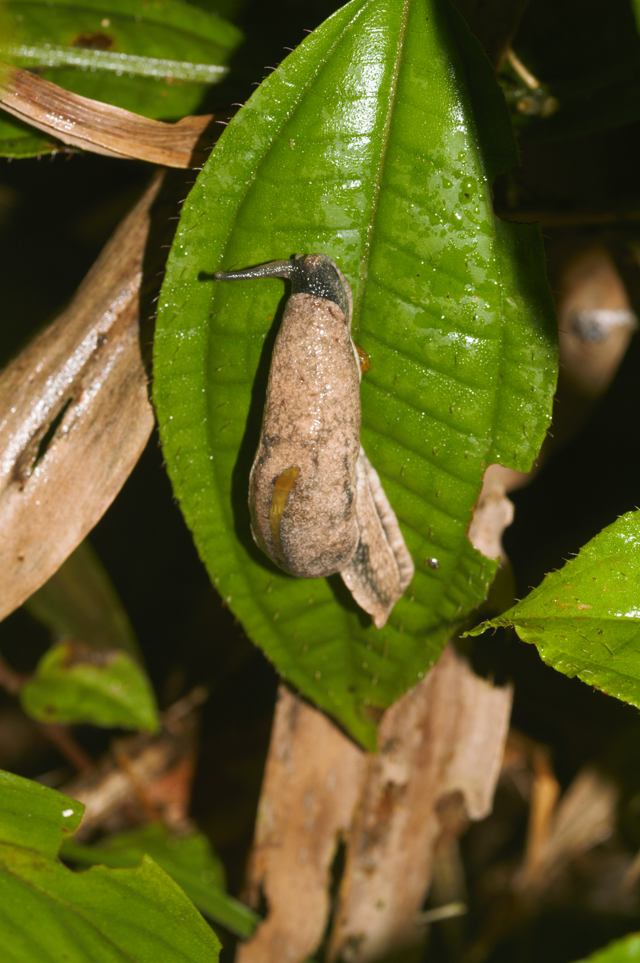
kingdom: Animalia
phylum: Mollusca
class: Gastropoda
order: Stylommatophora
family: Ariophantidae
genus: Parmarion
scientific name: Parmarion martensi
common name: Semi-slug
